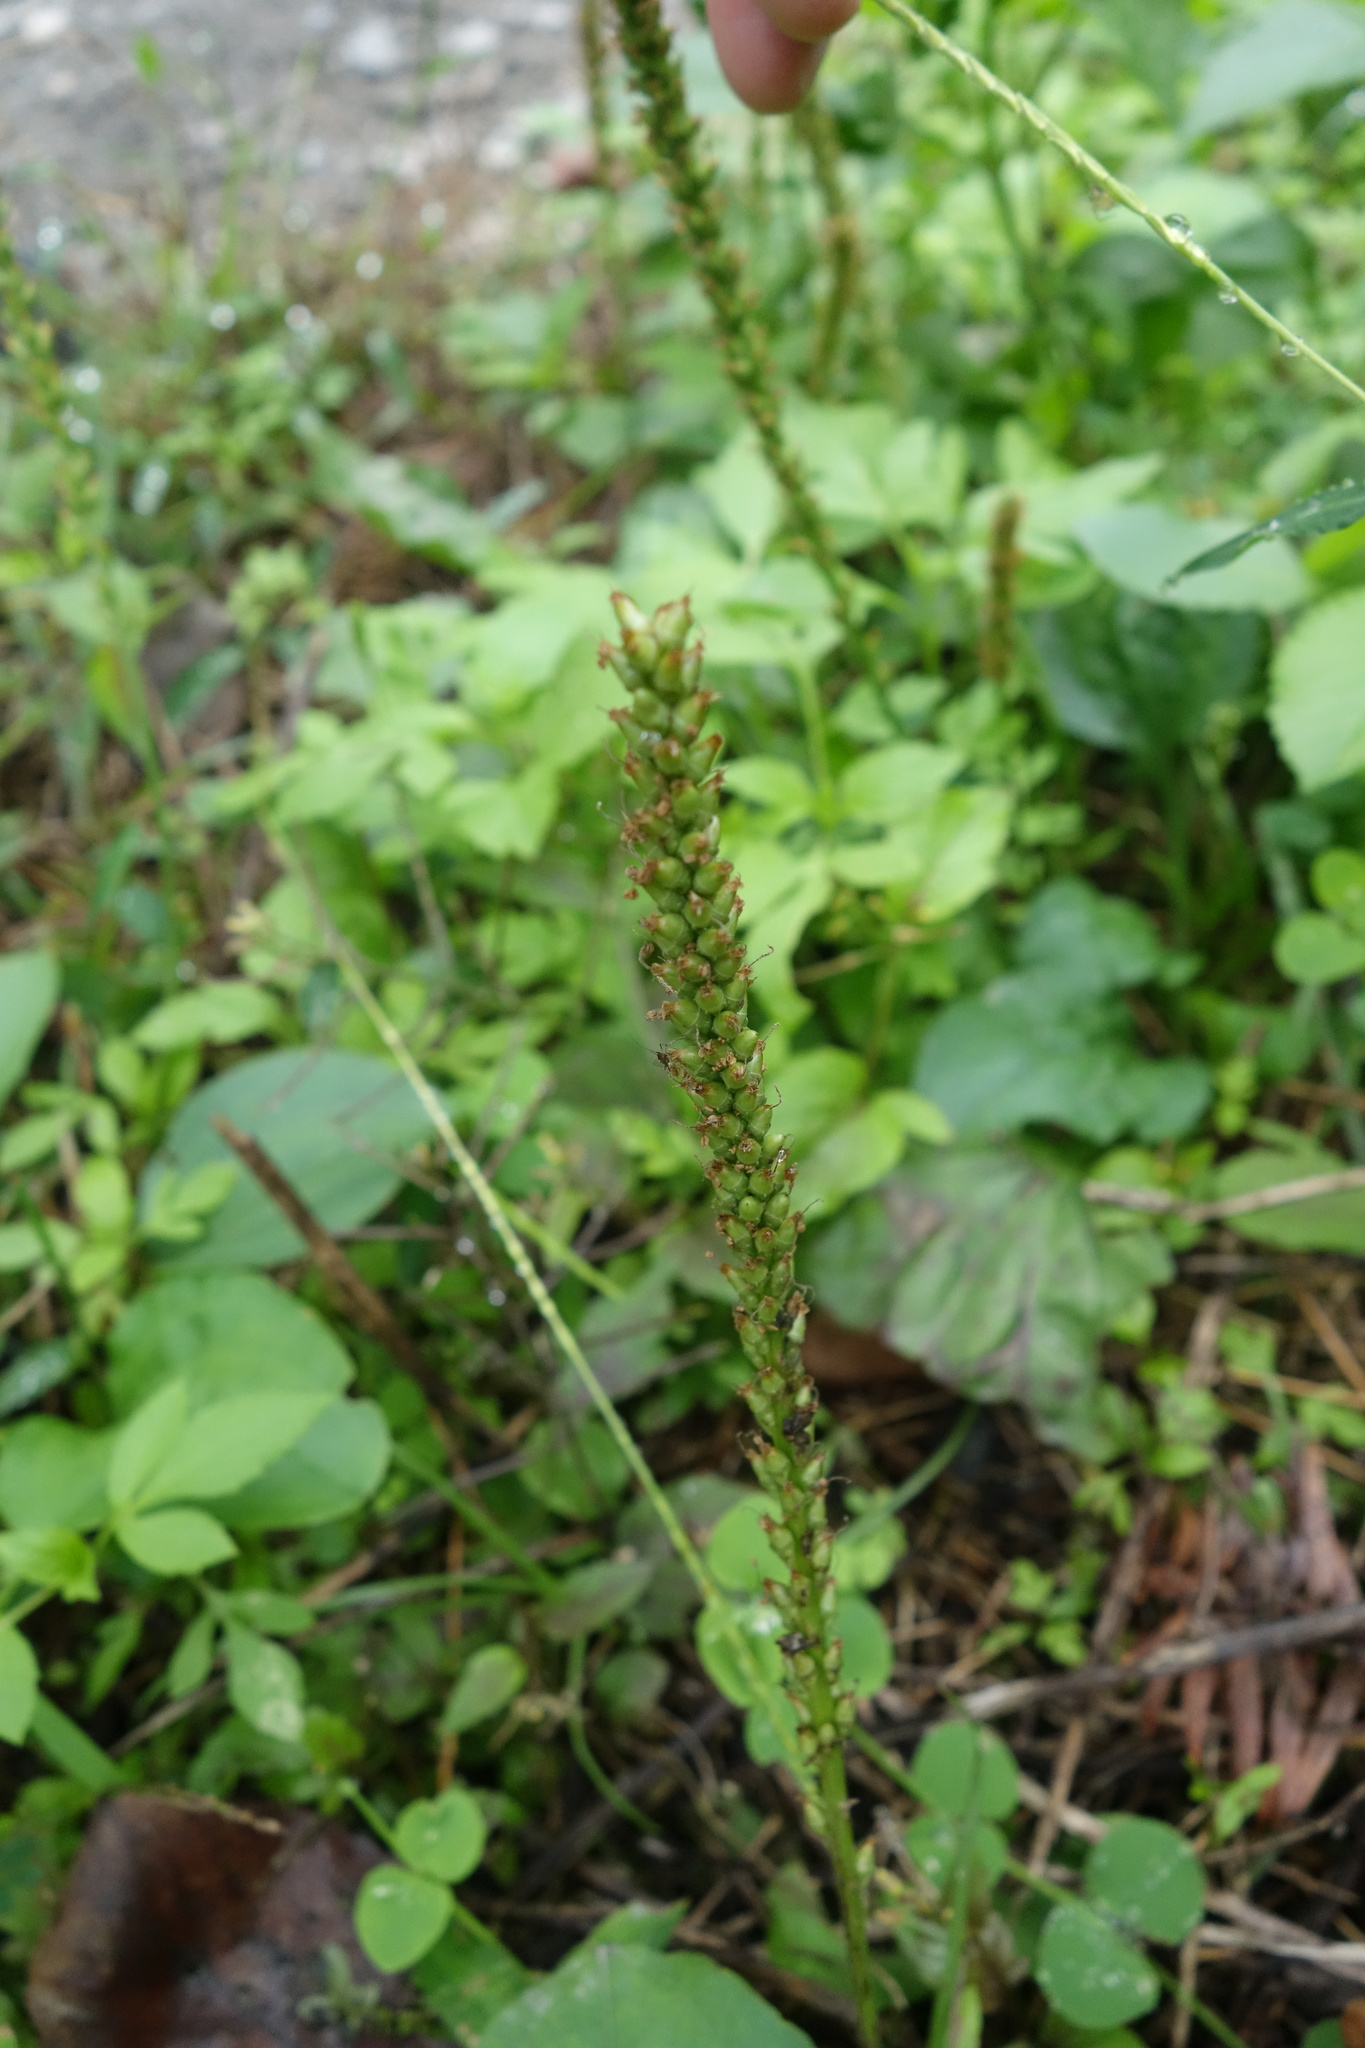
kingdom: Plantae
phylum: Tracheophyta
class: Magnoliopsida
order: Lamiales
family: Plantaginaceae
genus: Plantago
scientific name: Plantago major
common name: Common plantain
